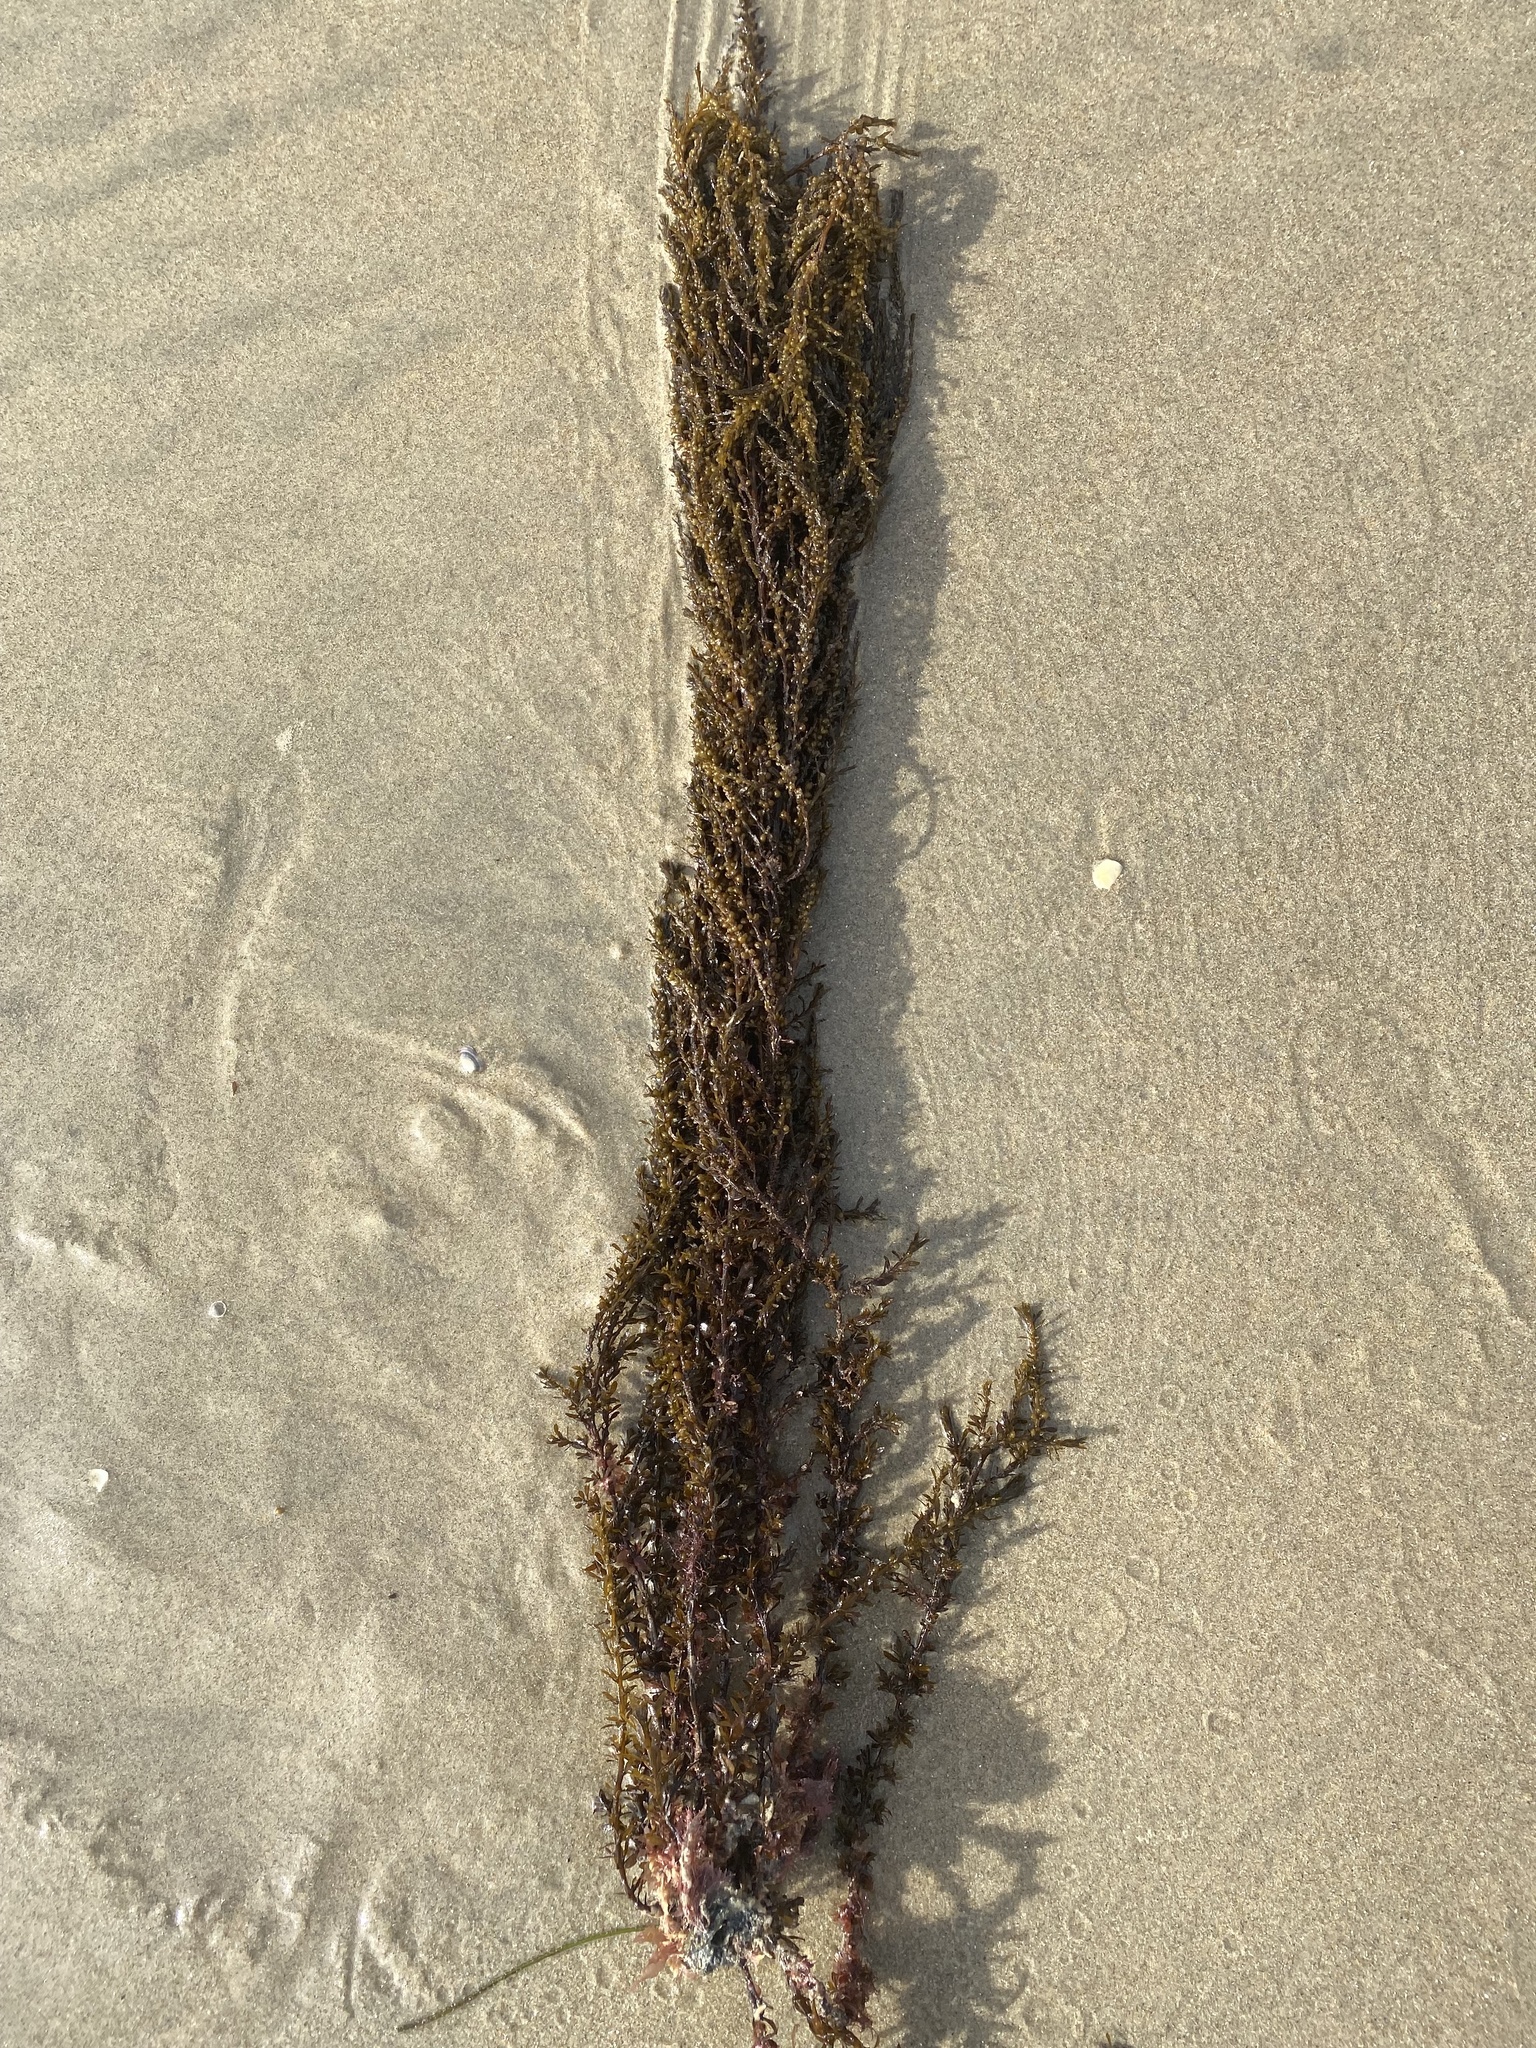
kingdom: Chromista
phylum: Ochrophyta
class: Phaeophyceae
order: Fucales
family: Sargassaceae
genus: Sargassum
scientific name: Sargassum muticum
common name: Japweed
